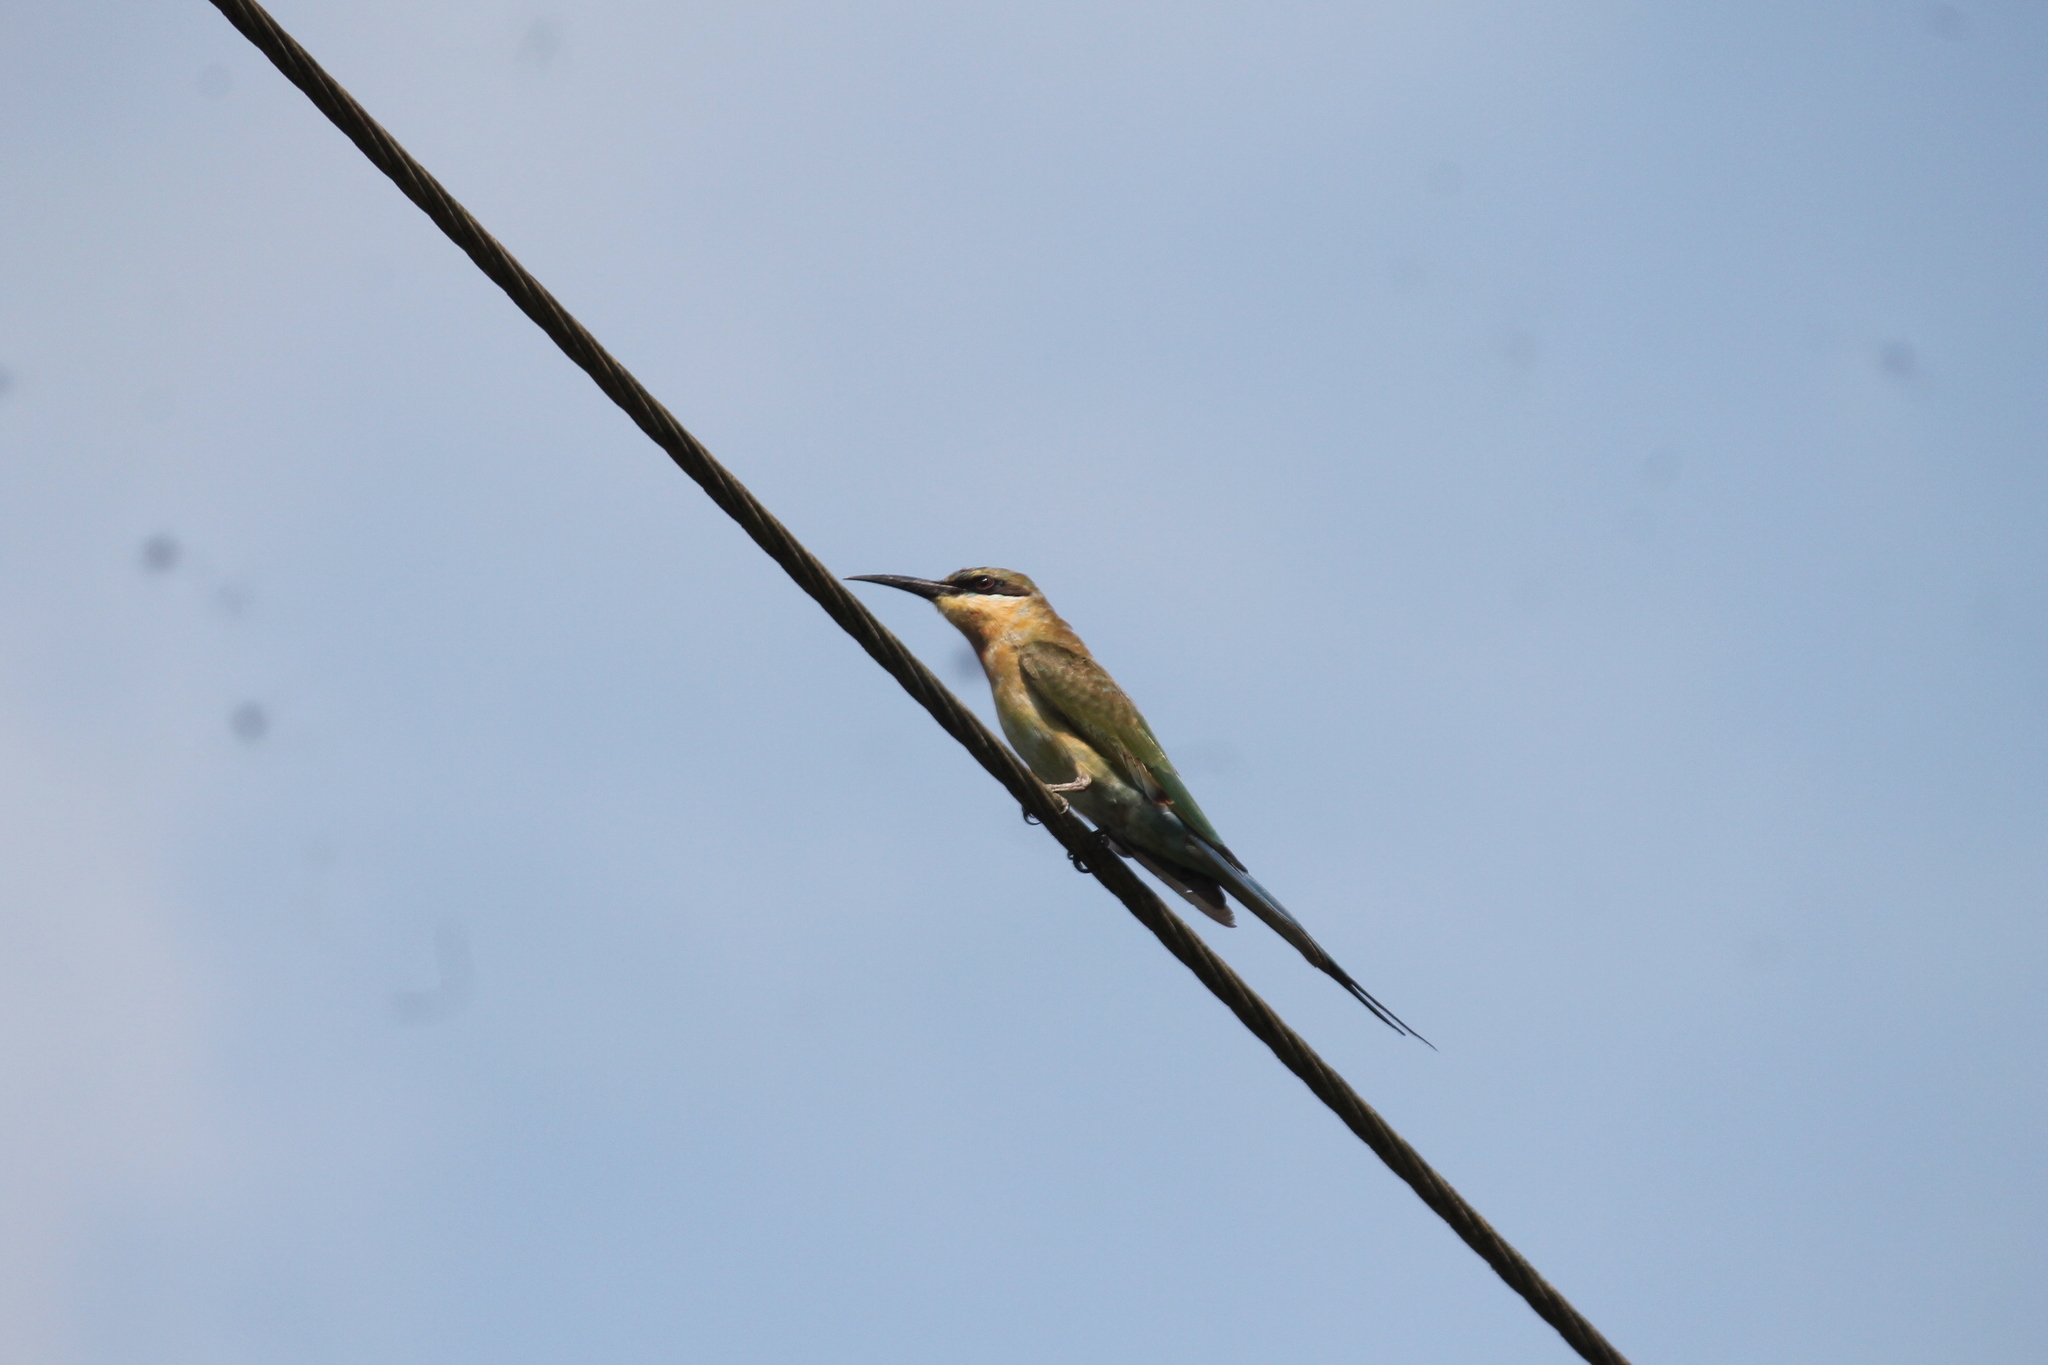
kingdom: Animalia
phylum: Chordata
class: Aves
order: Coraciiformes
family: Meropidae
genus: Merops
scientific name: Merops philippinus
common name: Blue-tailed bee-eater
